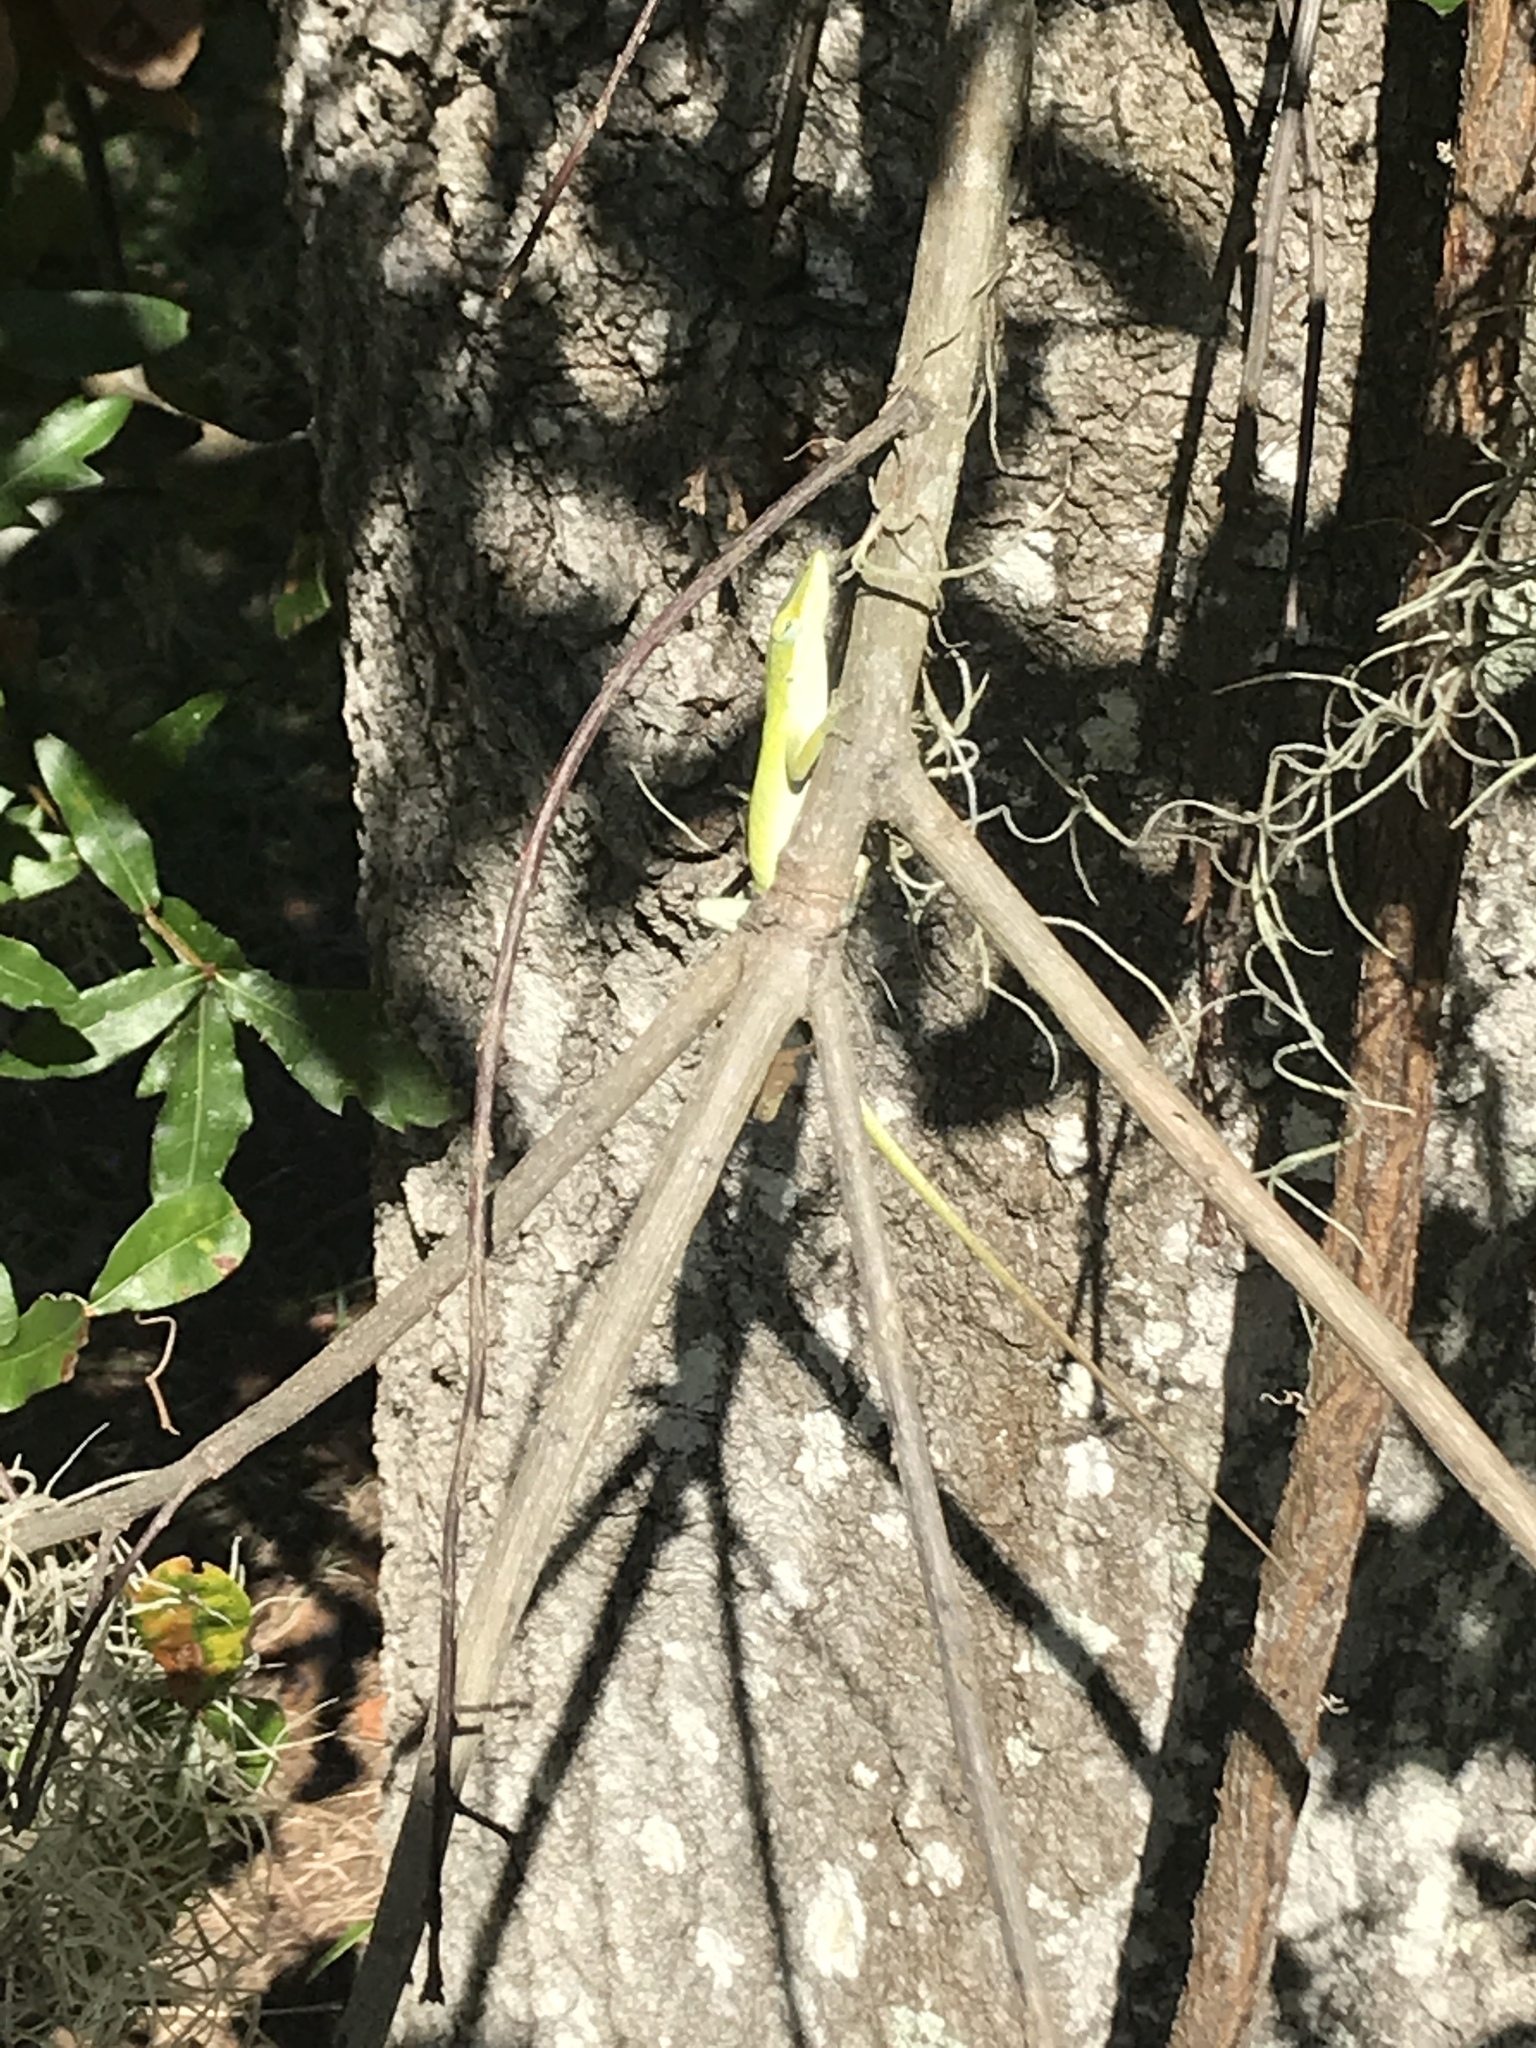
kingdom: Animalia
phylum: Chordata
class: Squamata
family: Dactyloidae
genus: Anolis
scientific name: Anolis carolinensis
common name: Green anole
